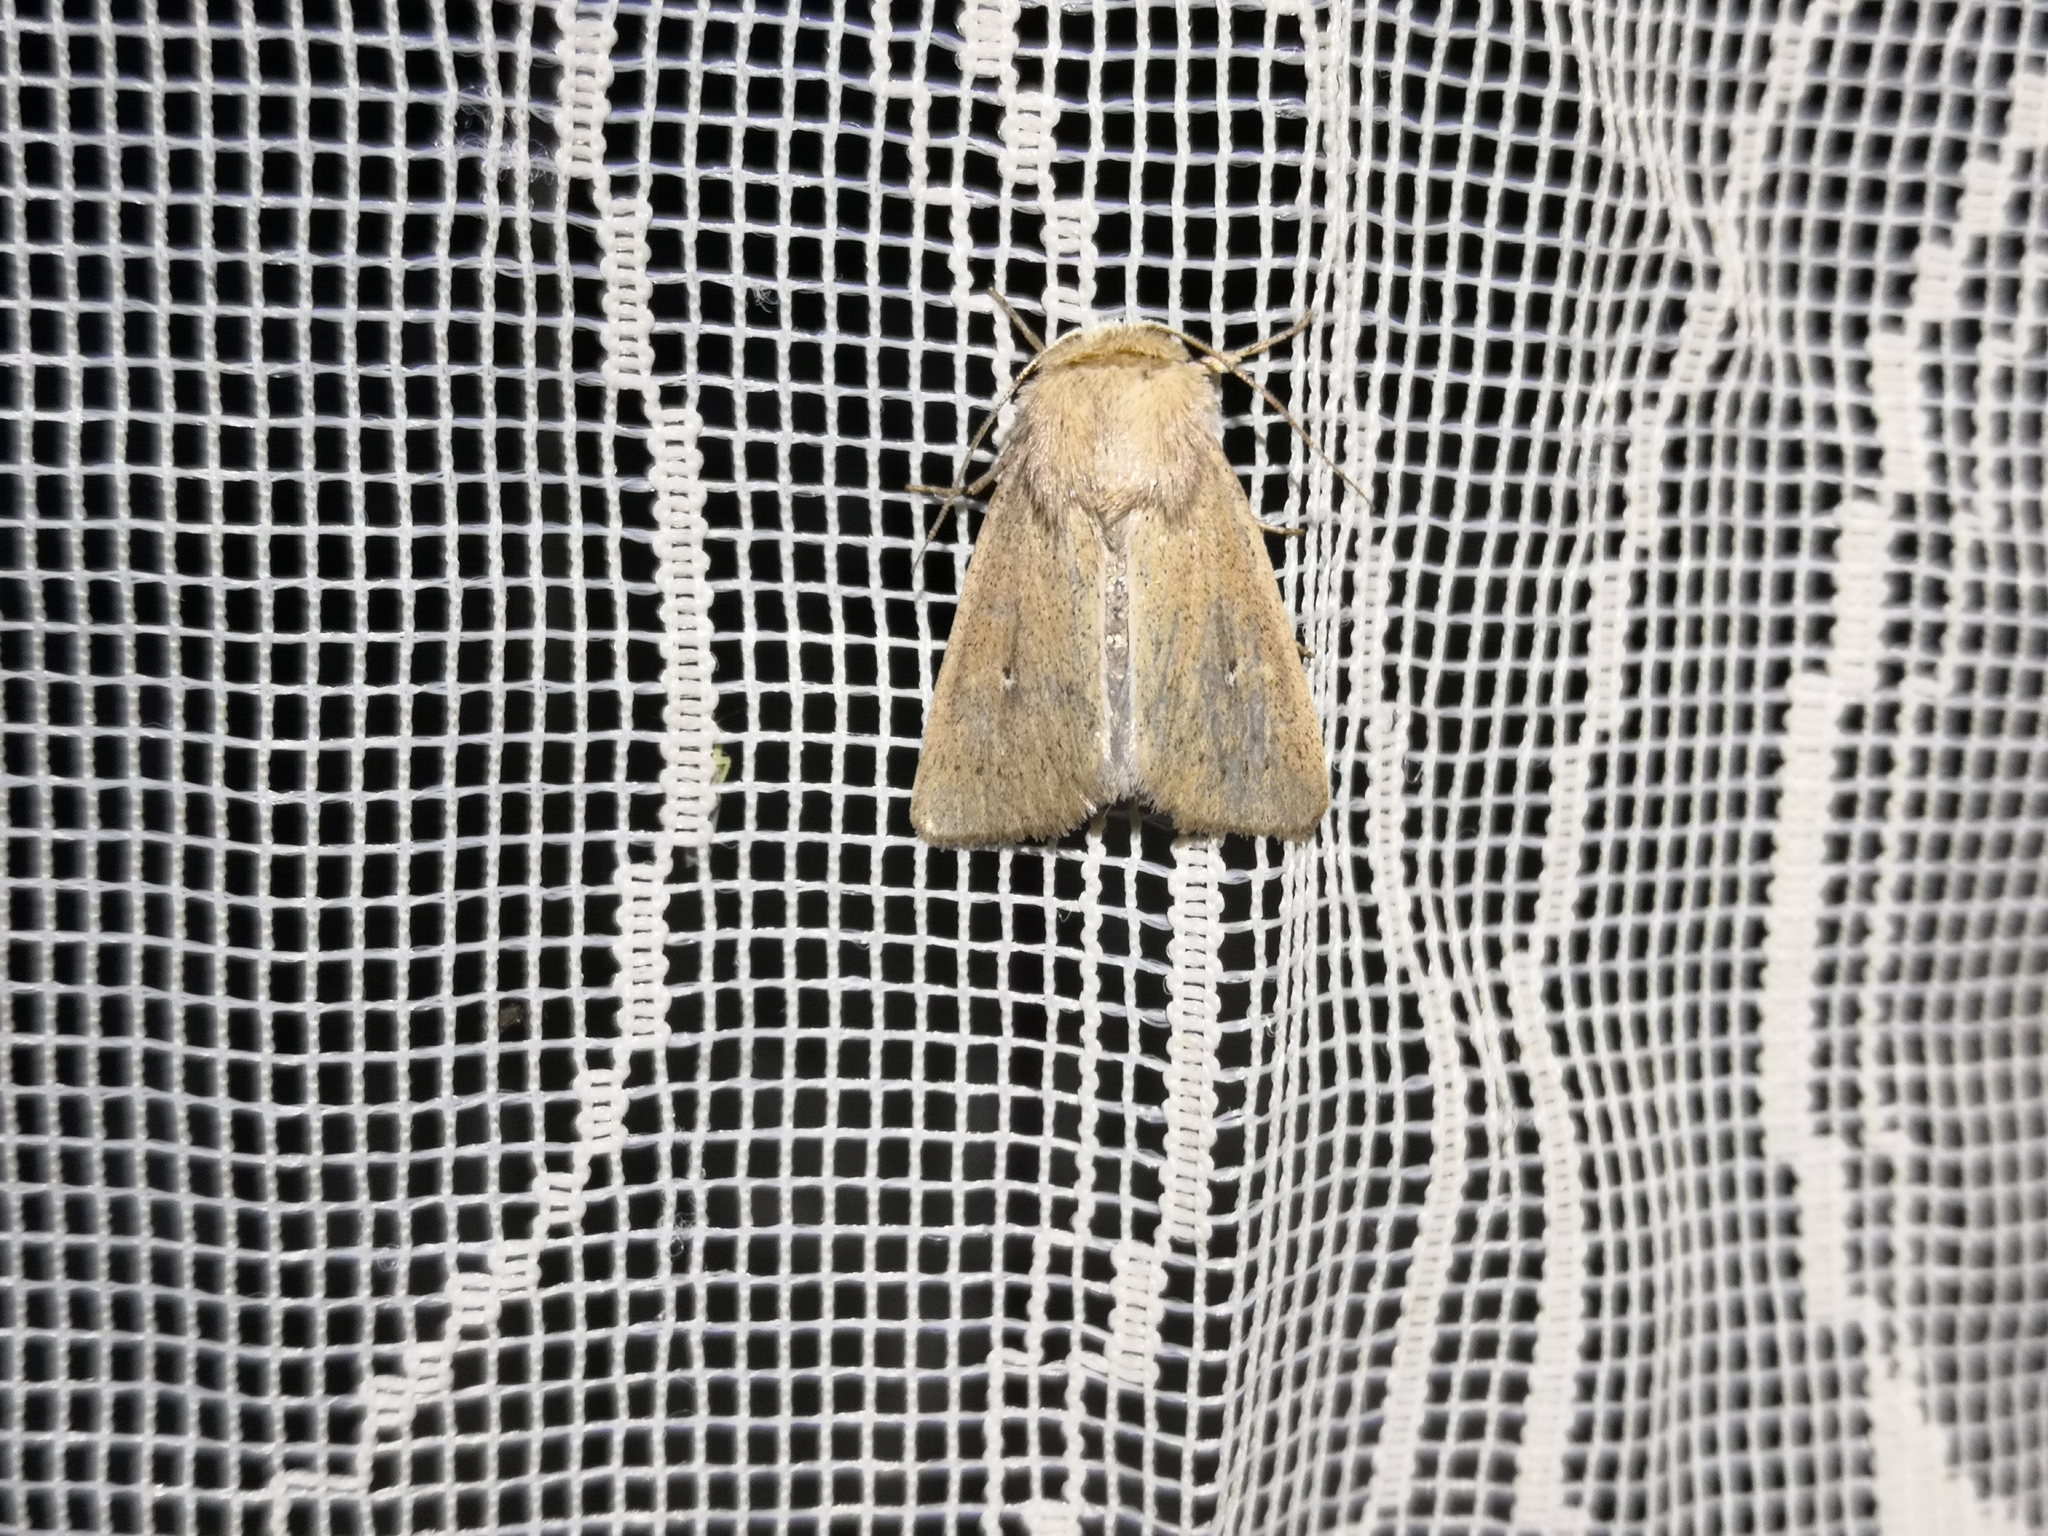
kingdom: Animalia
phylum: Arthropoda
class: Insecta
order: Lepidoptera
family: Noctuidae
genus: Mythimna
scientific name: Mythimna sicula
